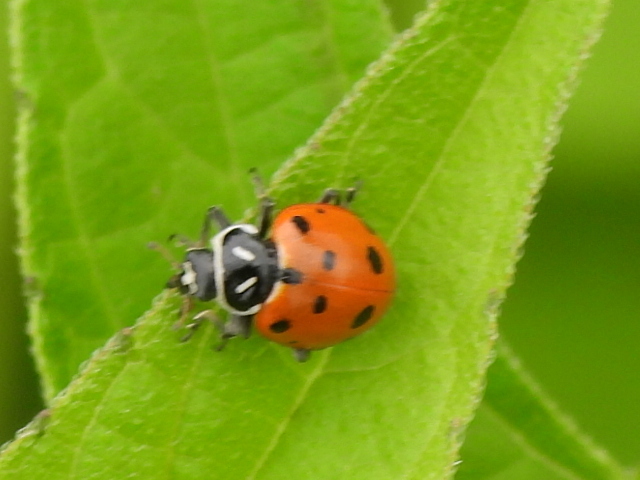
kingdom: Animalia
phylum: Arthropoda
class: Insecta
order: Coleoptera
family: Coccinellidae
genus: Hippodamia
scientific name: Hippodamia convergens
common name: Convergent lady beetle
